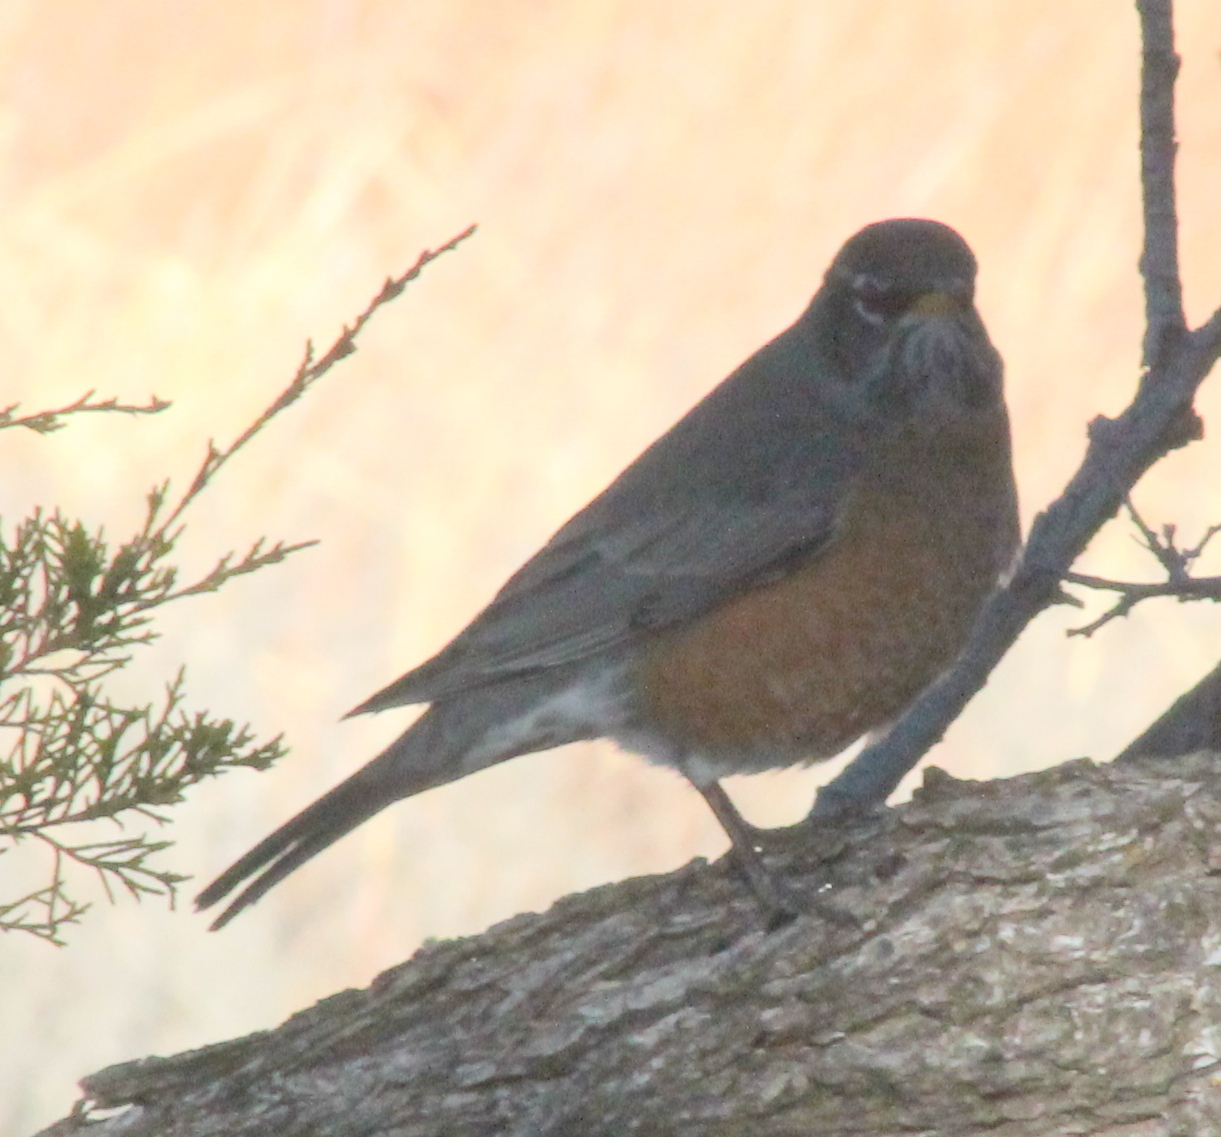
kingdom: Animalia
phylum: Chordata
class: Aves
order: Passeriformes
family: Turdidae
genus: Turdus
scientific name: Turdus migratorius
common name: American robin
